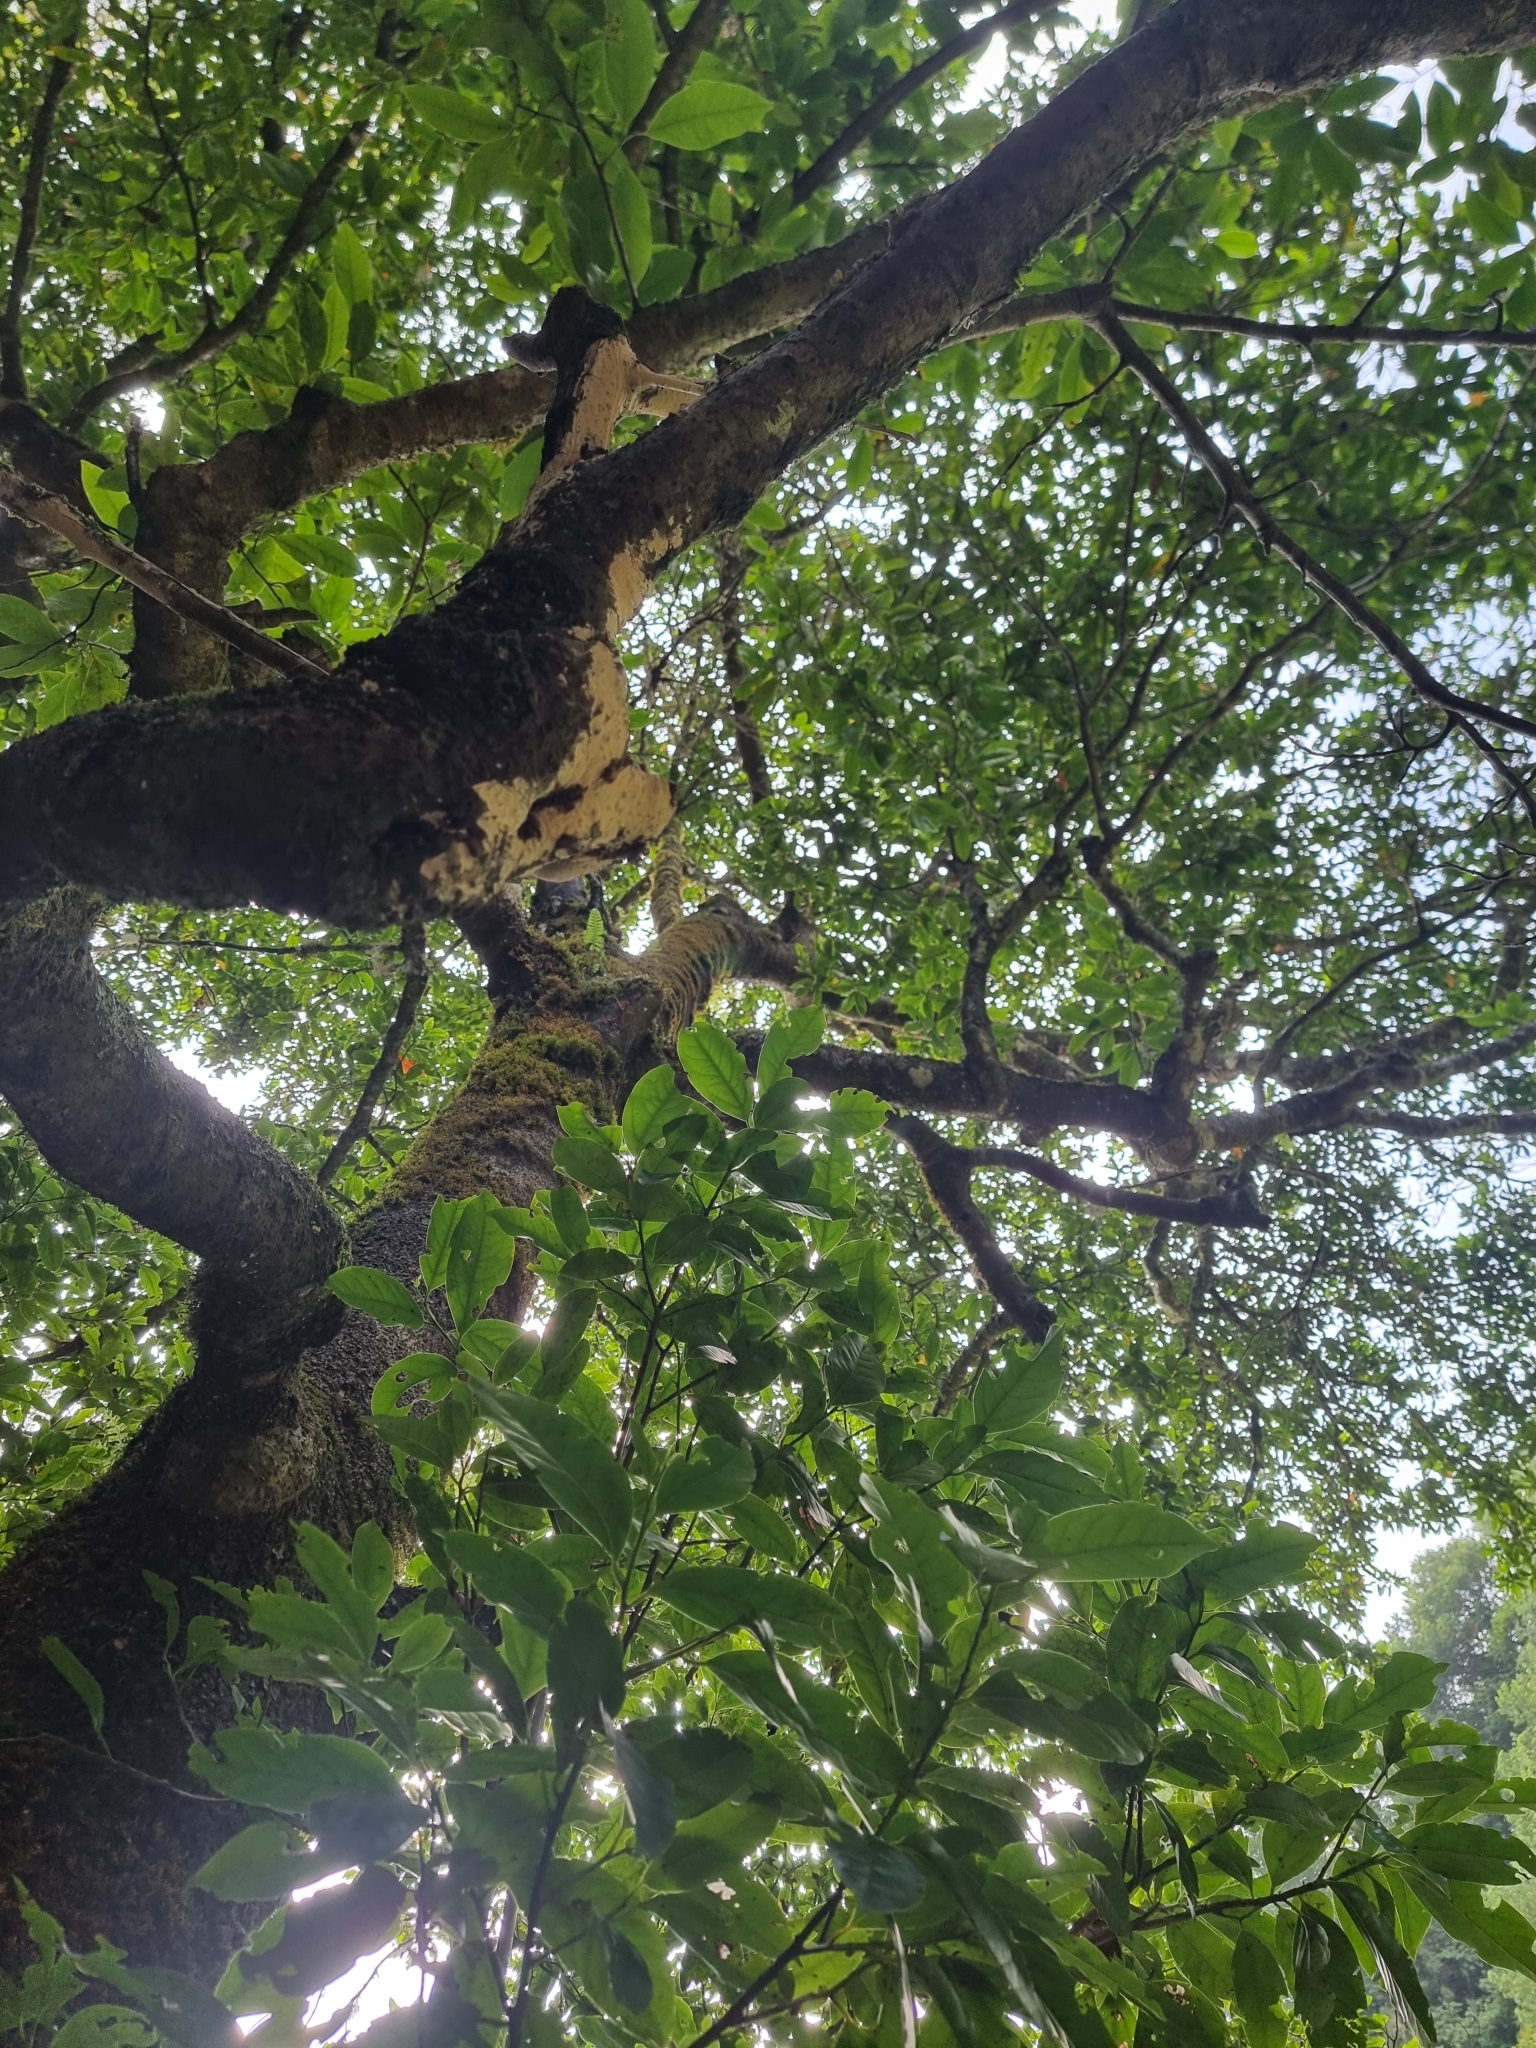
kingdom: Plantae
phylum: Tracheophyta
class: Magnoliopsida
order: Laurales
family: Lauraceae
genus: Mespilodaphne
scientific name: Mespilodaphne foetens
